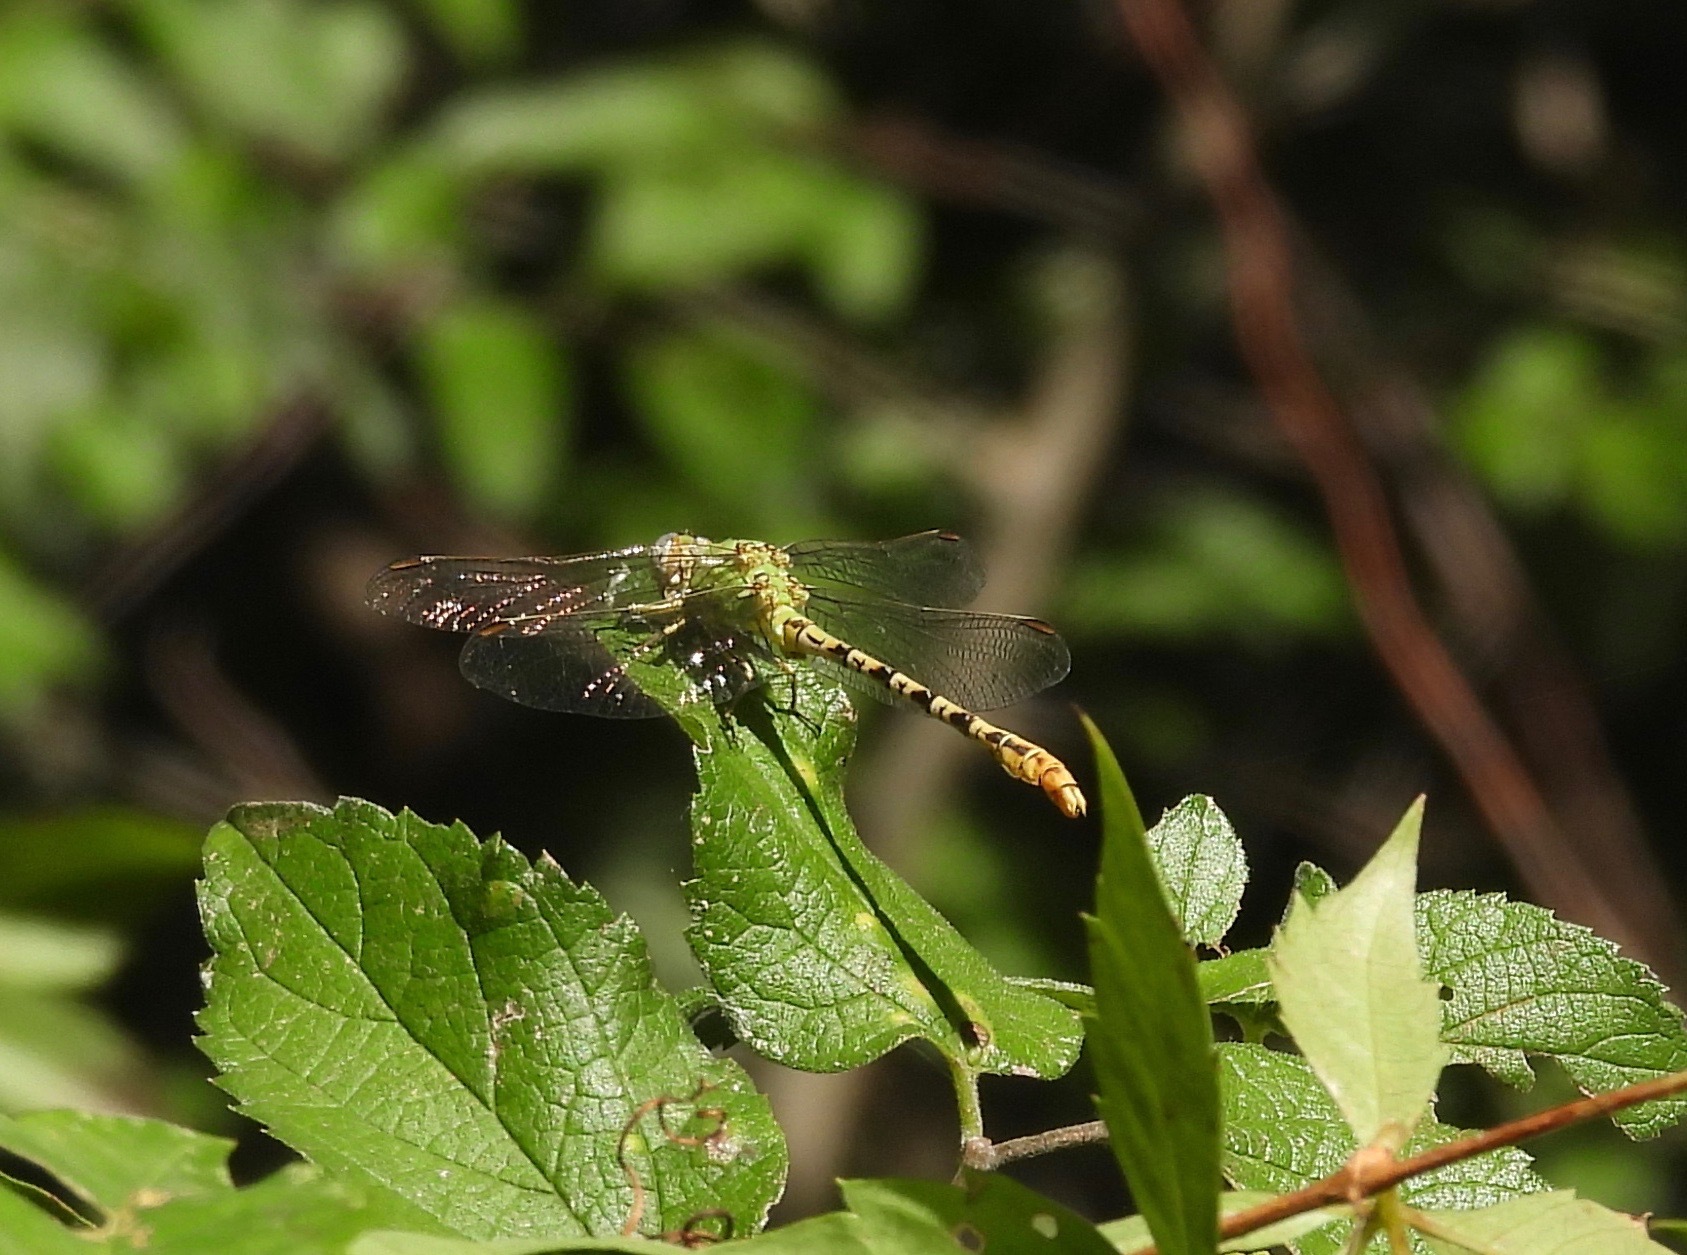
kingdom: Animalia
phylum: Arthropoda
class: Insecta
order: Odonata
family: Gomphidae
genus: Erpetogomphus
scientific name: Erpetogomphus crotalinus
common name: Yellow-legged ringtail
